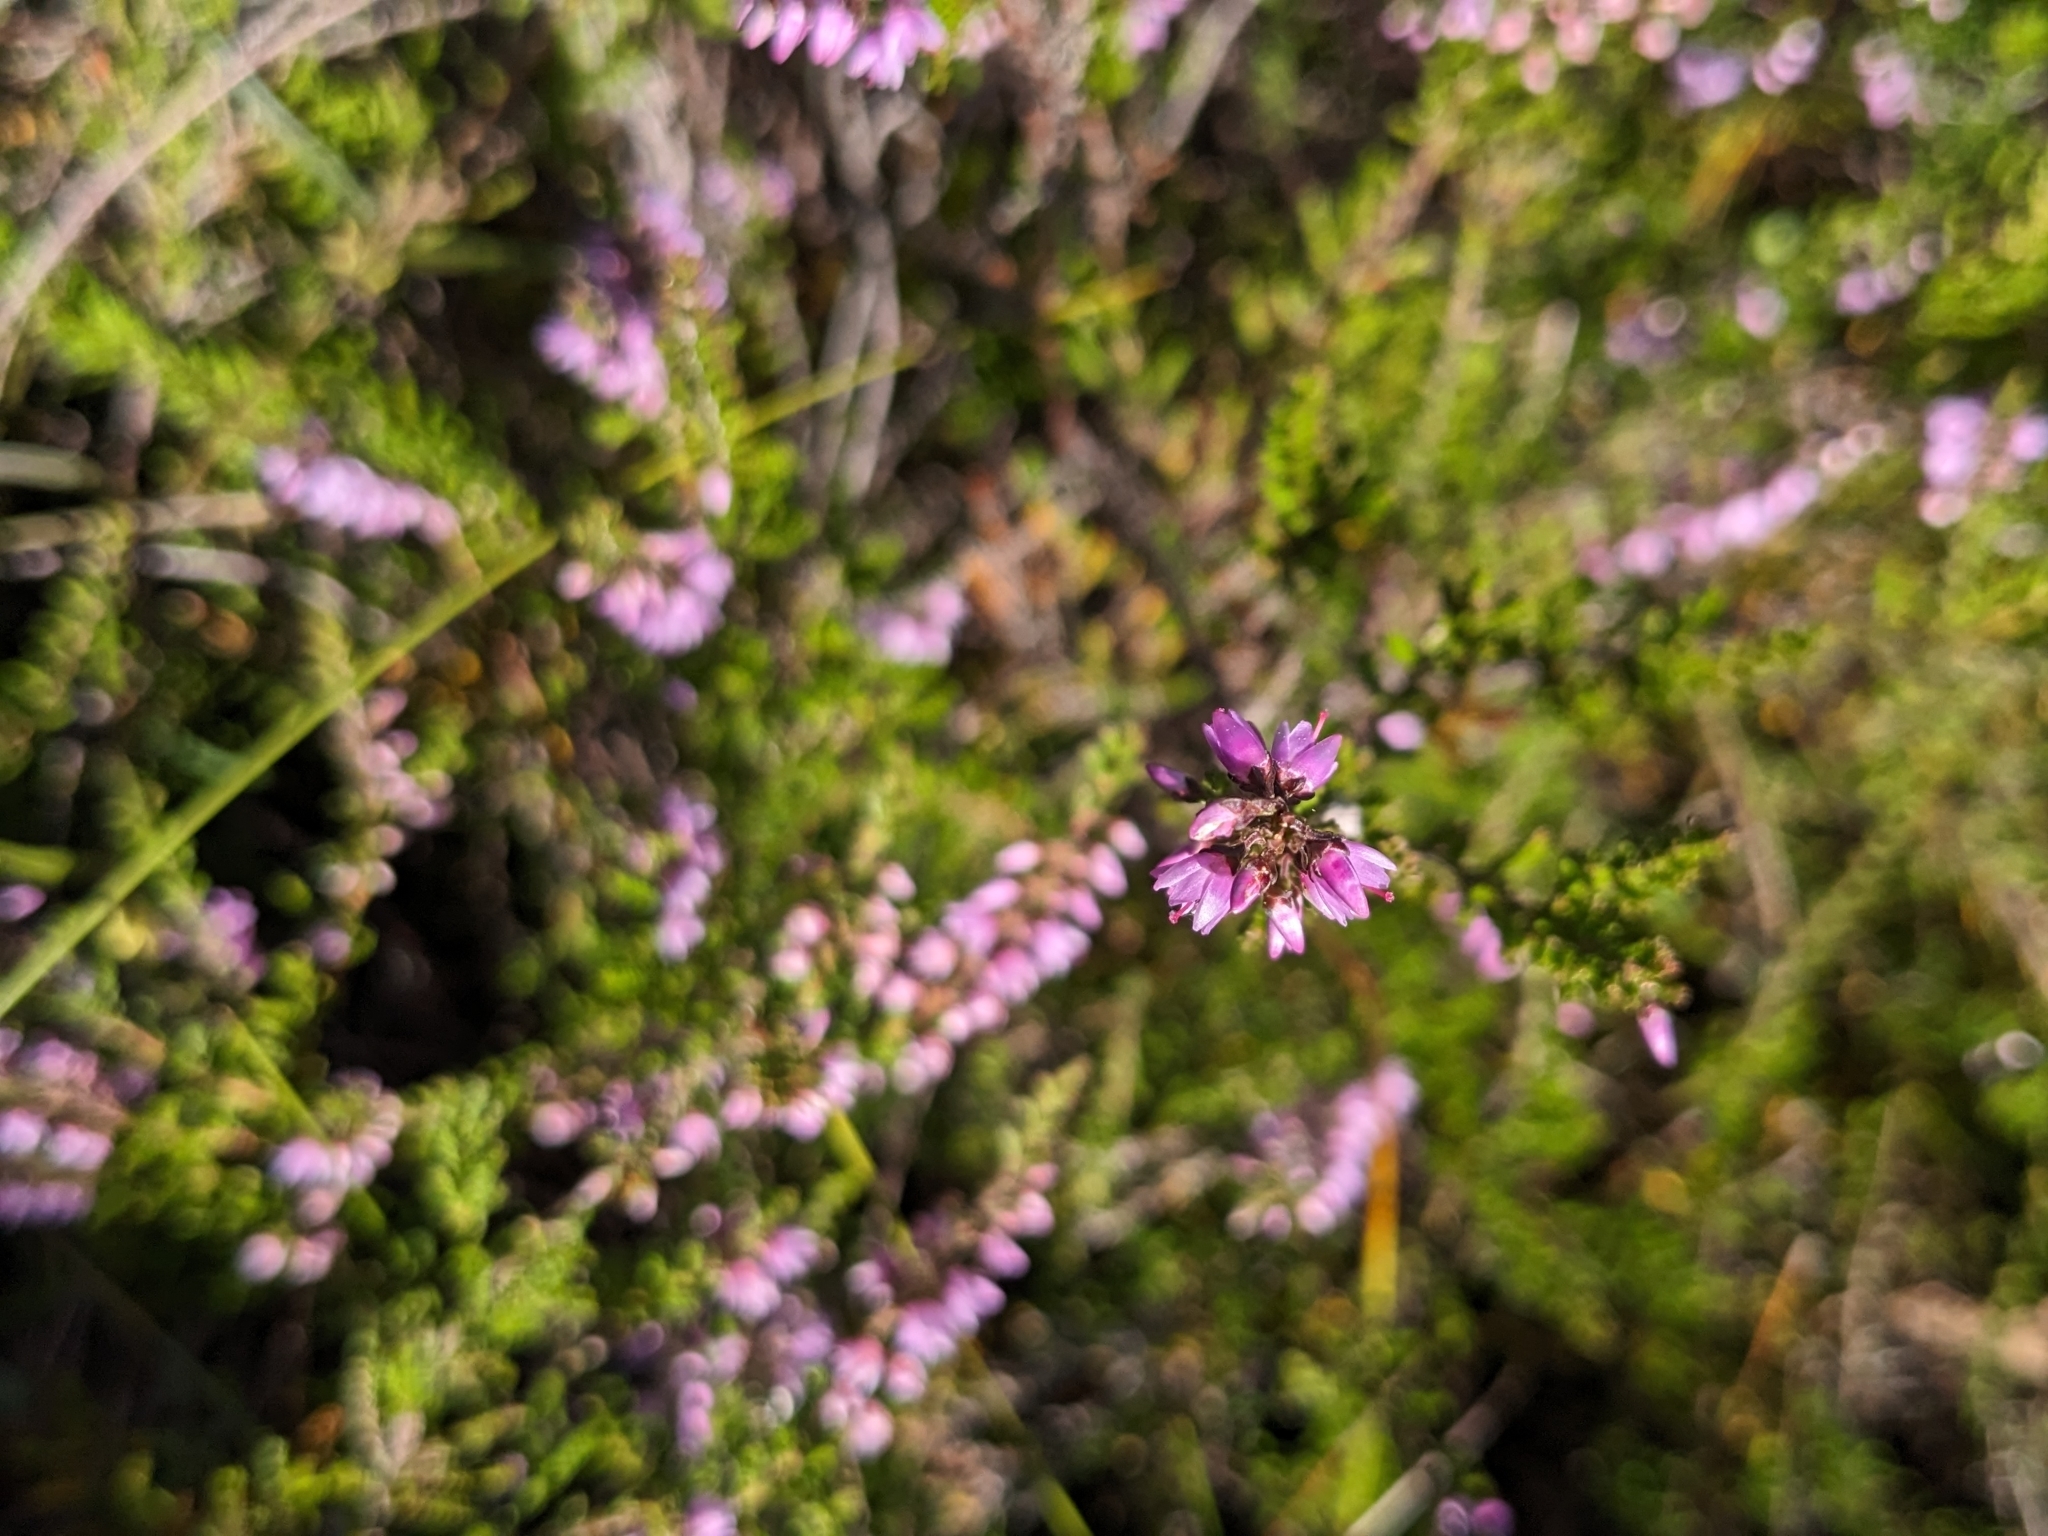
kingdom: Plantae
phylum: Tracheophyta
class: Magnoliopsida
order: Ericales
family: Ericaceae
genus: Calluna
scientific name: Calluna vulgaris
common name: Heather
